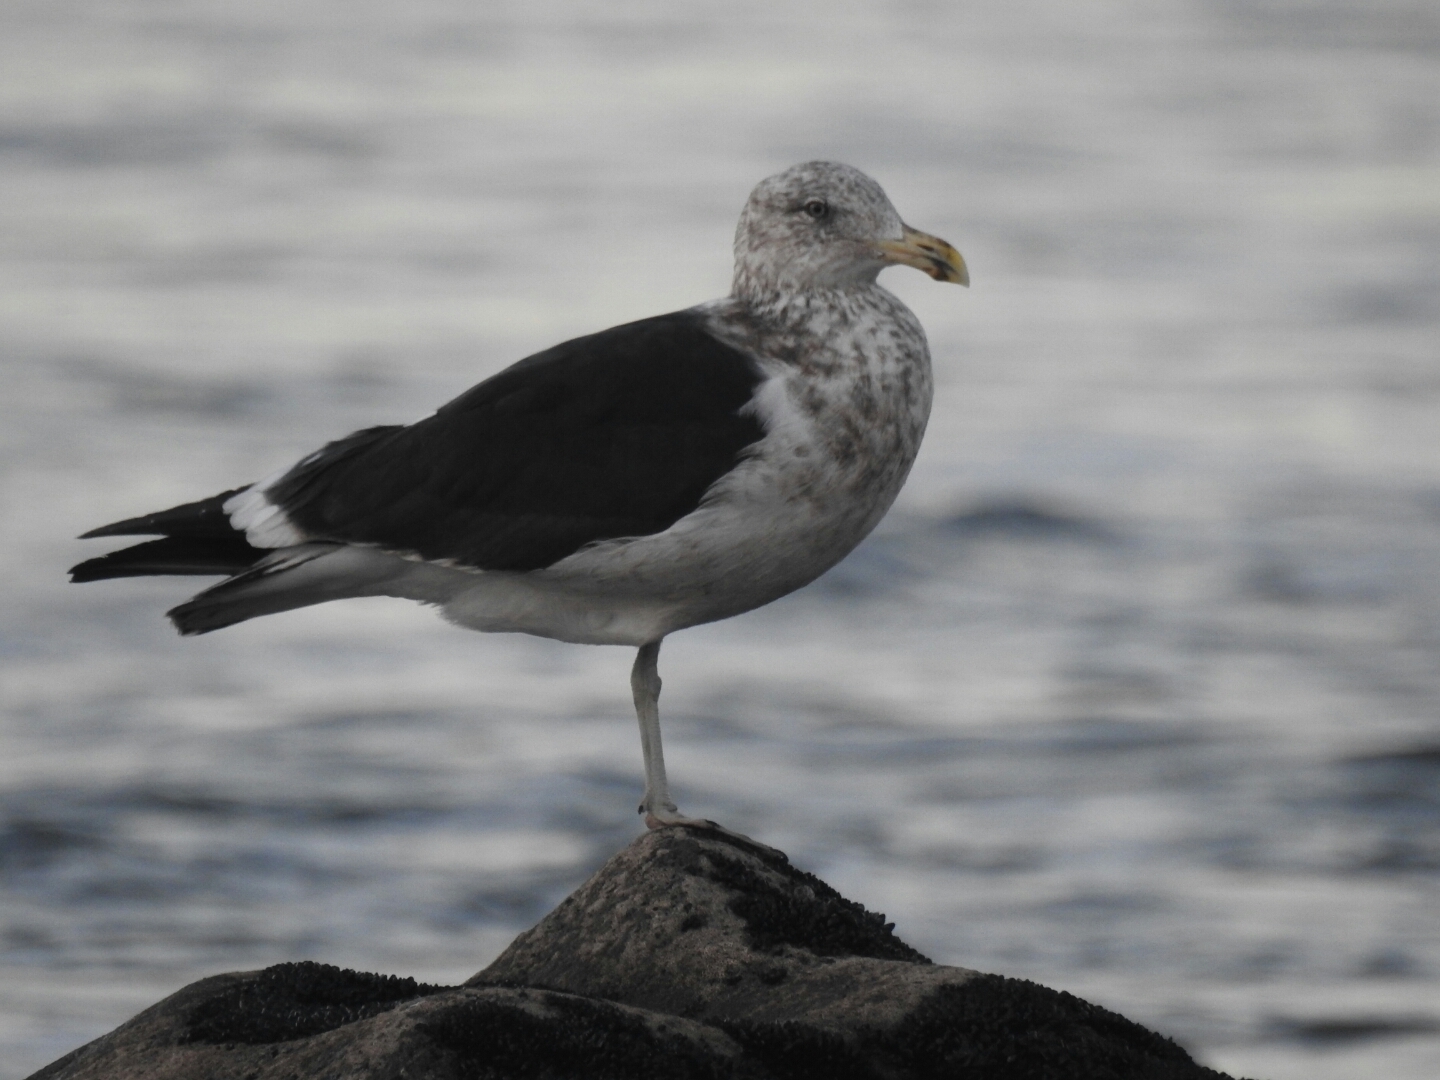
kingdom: Animalia
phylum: Chordata
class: Aves
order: Charadriiformes
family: Laridae
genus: Larus
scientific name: Larus dominicanus
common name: Kelp gull
